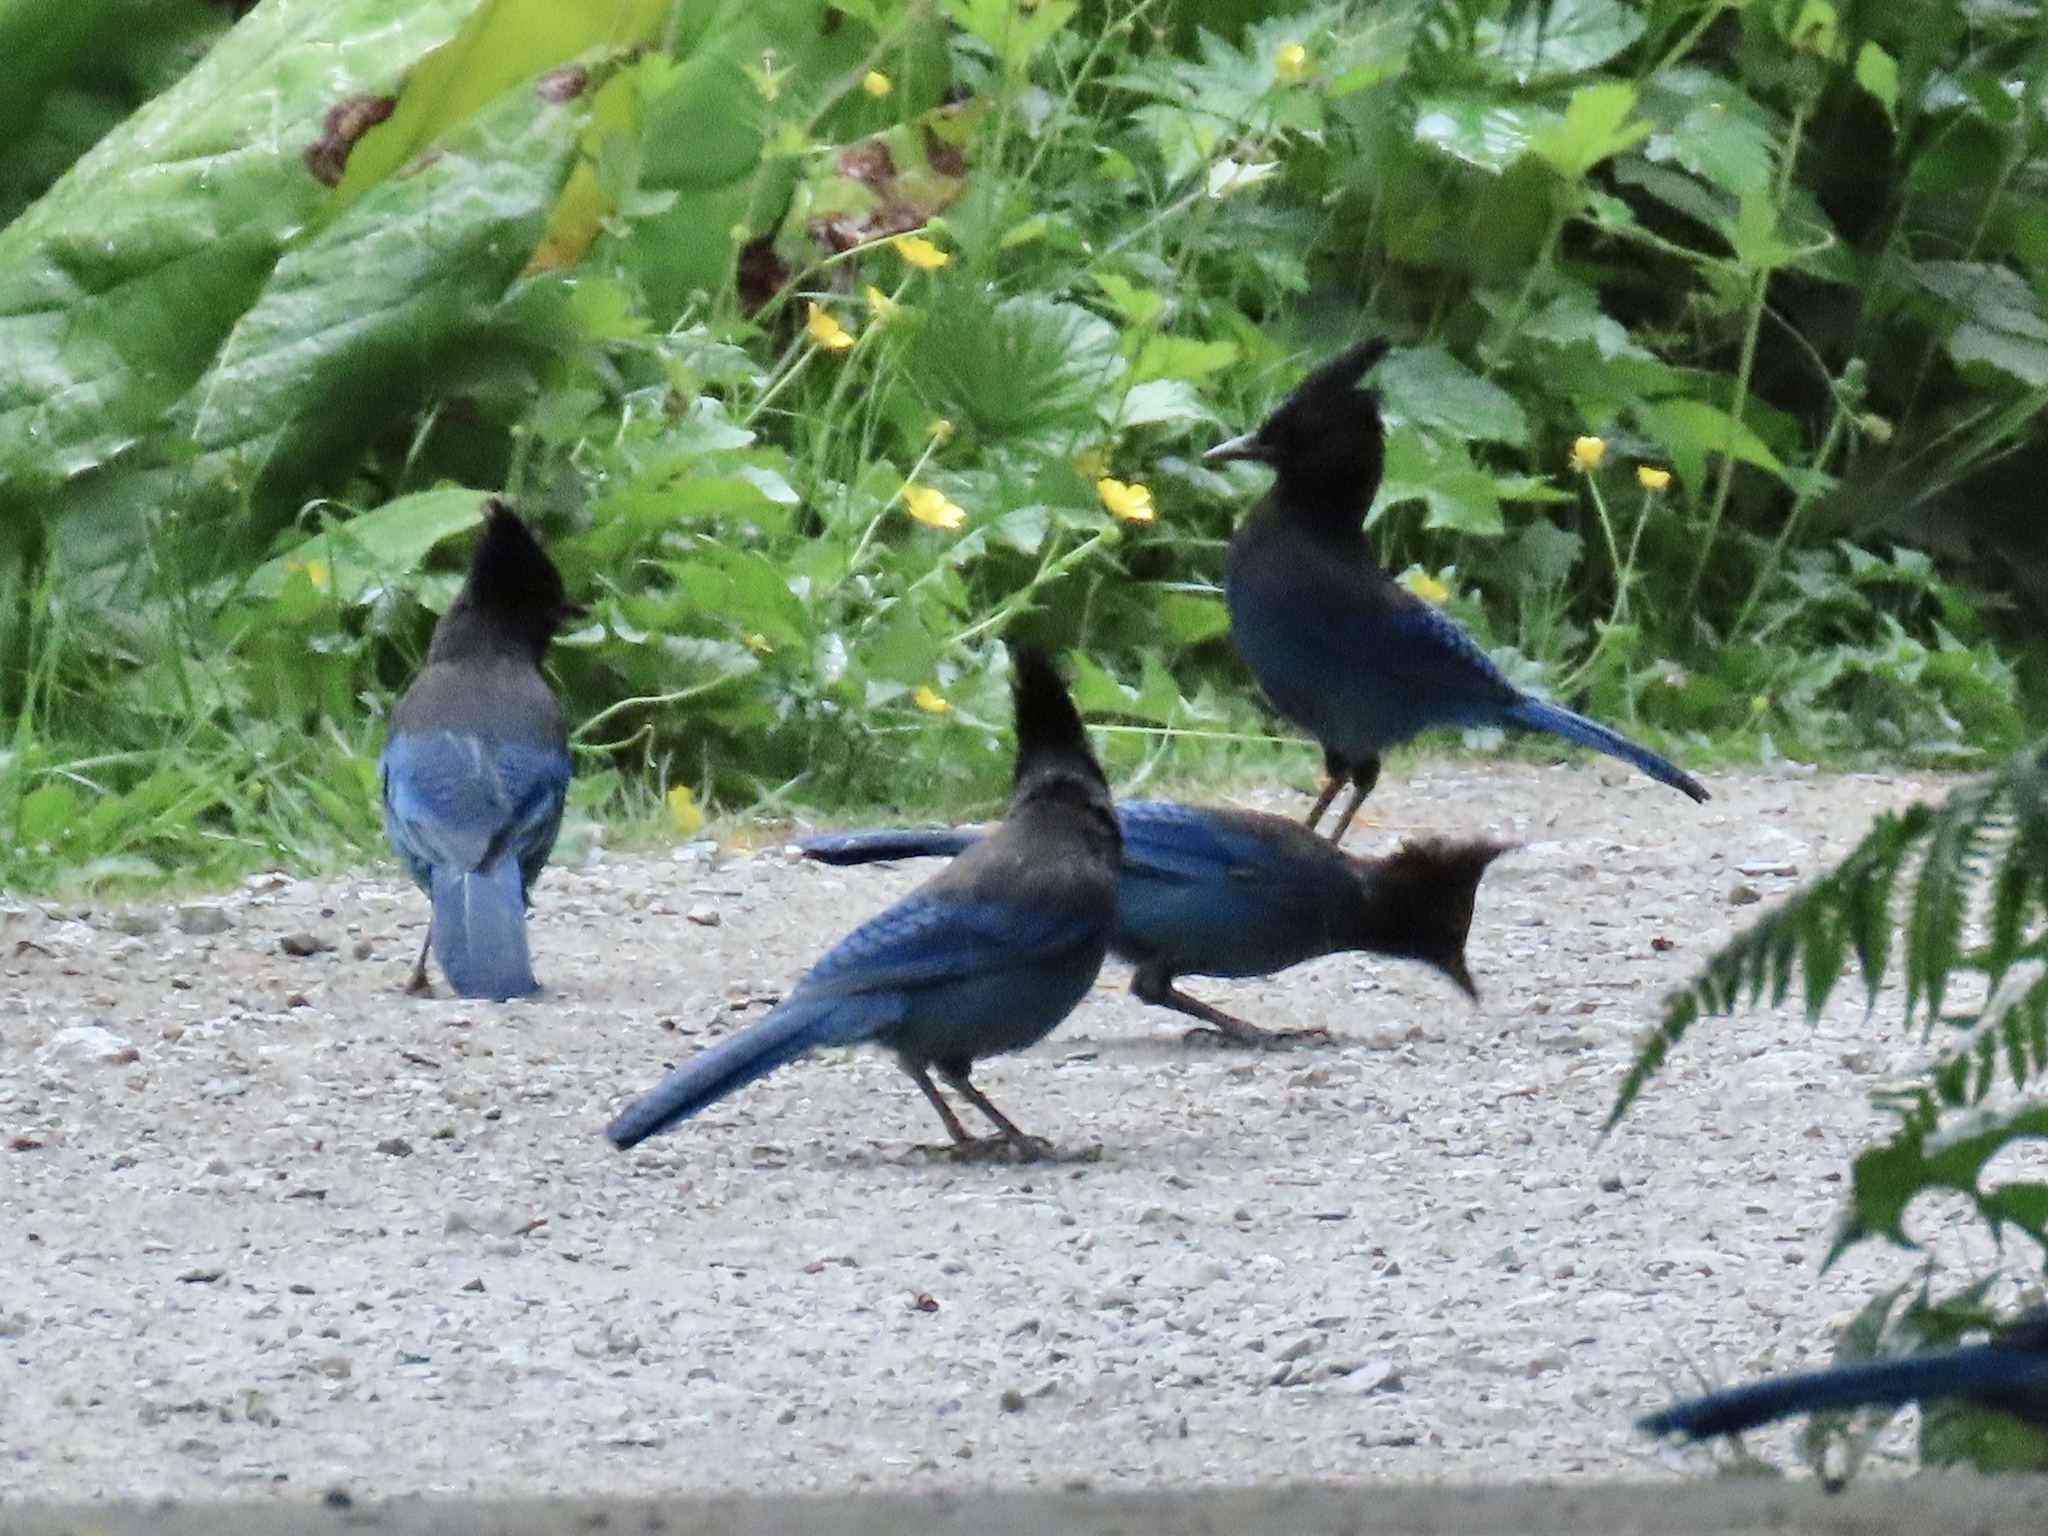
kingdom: Animalia
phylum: Chordata
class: Aves
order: Passeriformes
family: Corvidae
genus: Cyanocitta
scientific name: Cyanocitta stelleri
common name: Steller's jay
